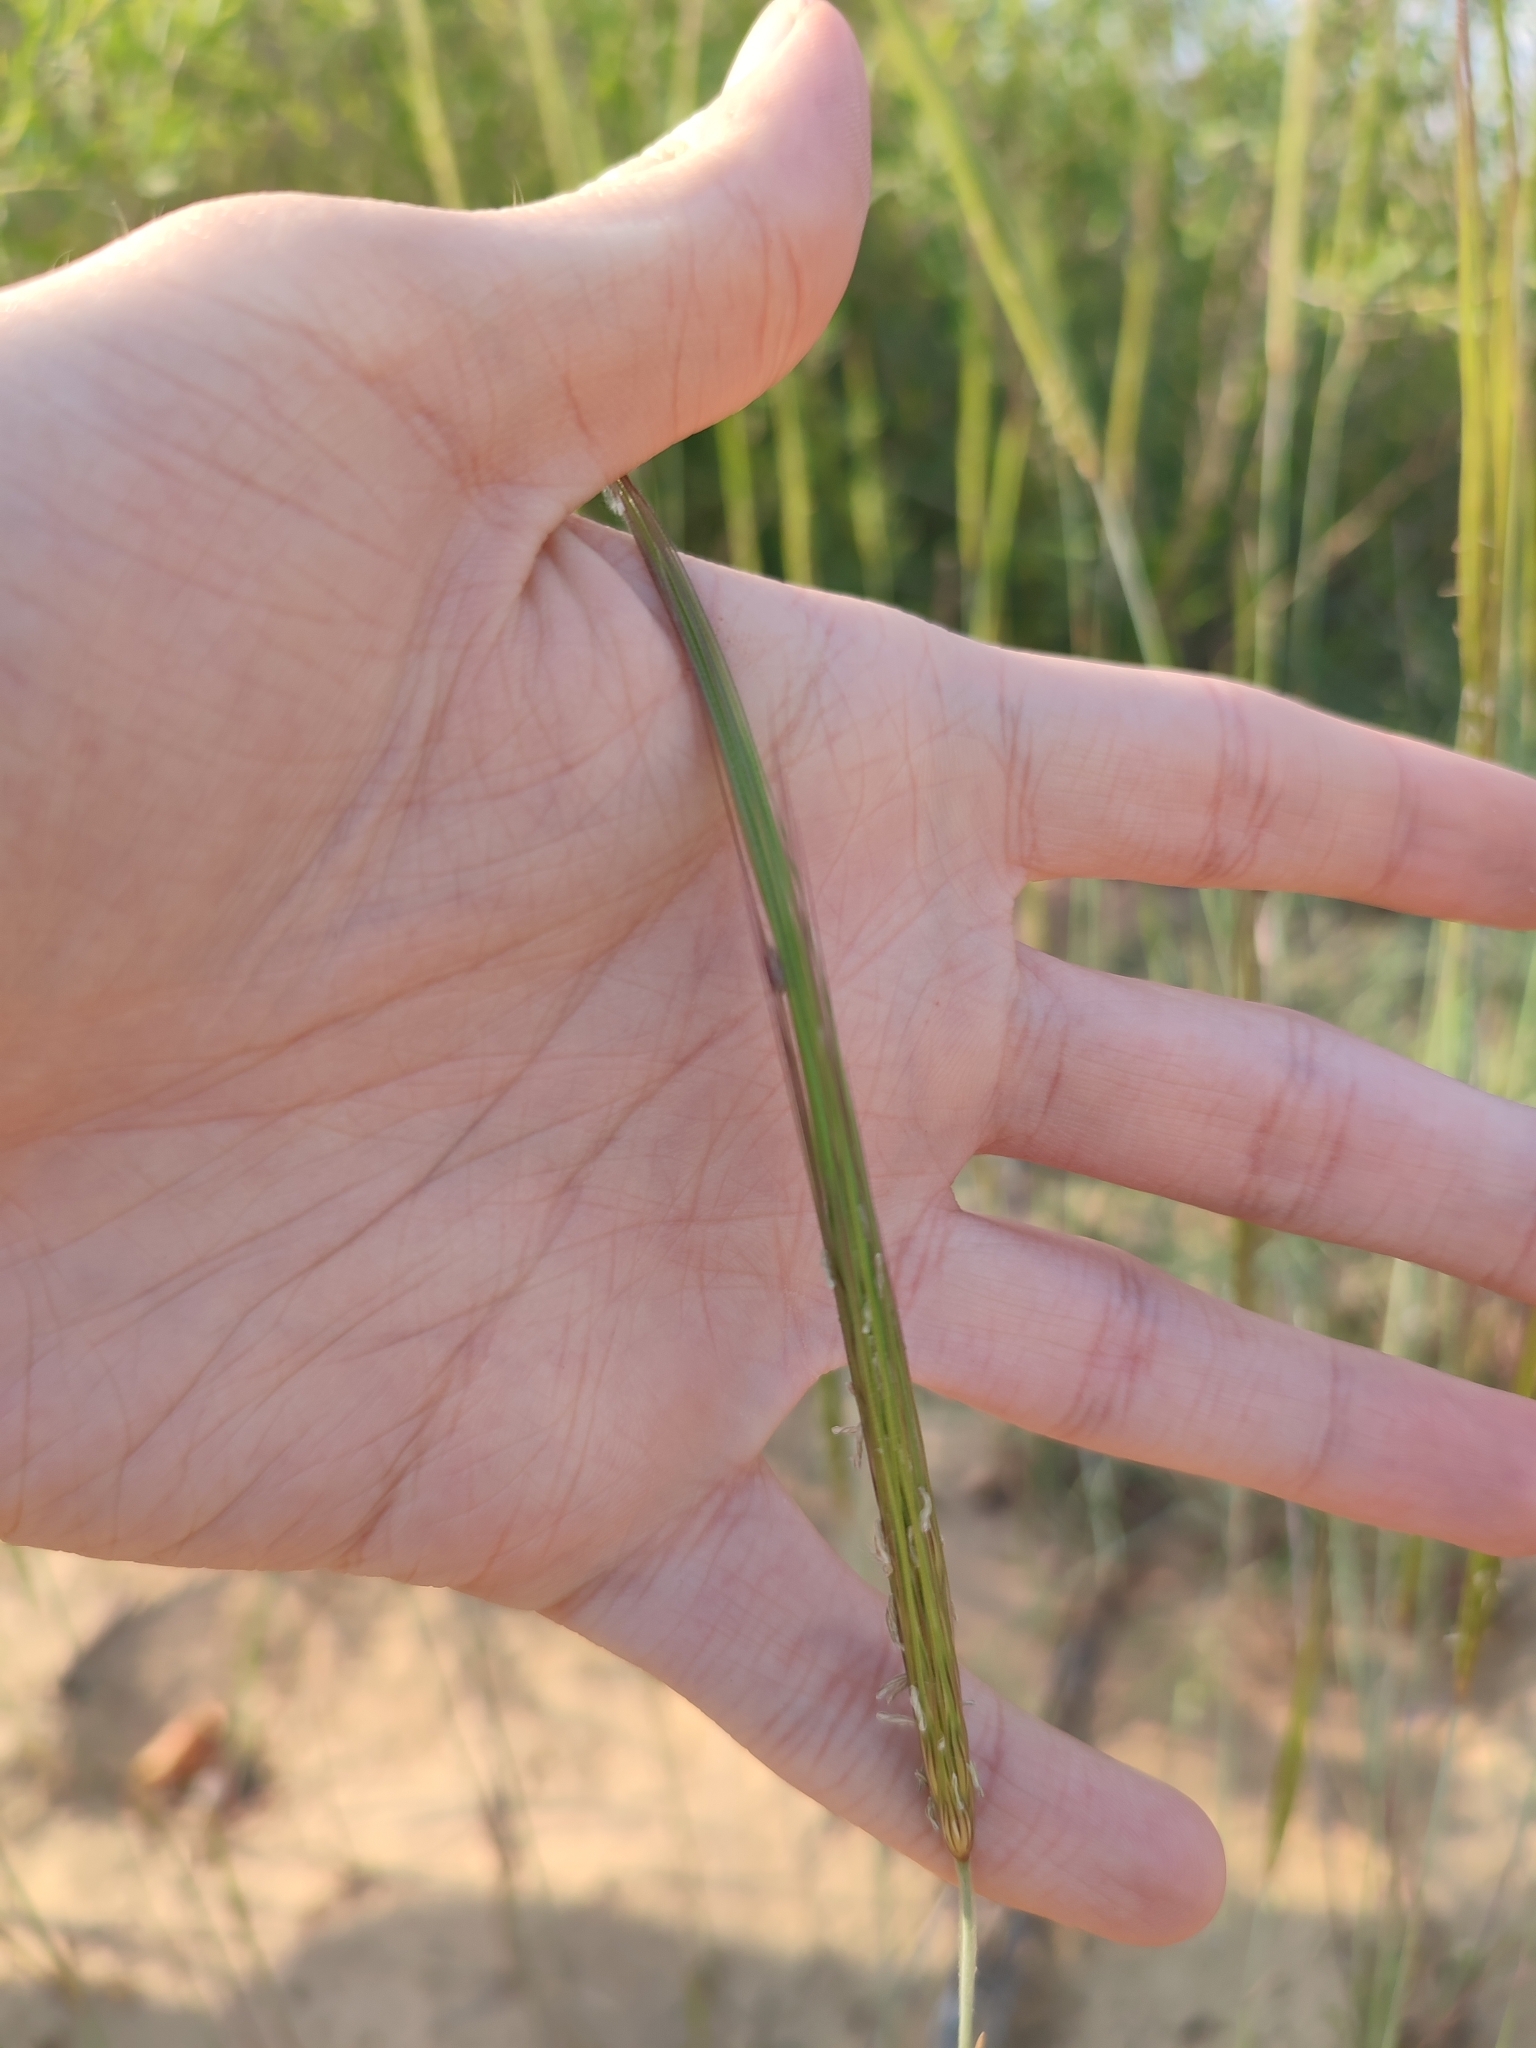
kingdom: Plantae
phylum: Tracheophyta
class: Liliopsida
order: Poales
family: Poaceae
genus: Secale
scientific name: Secale sylvestre
